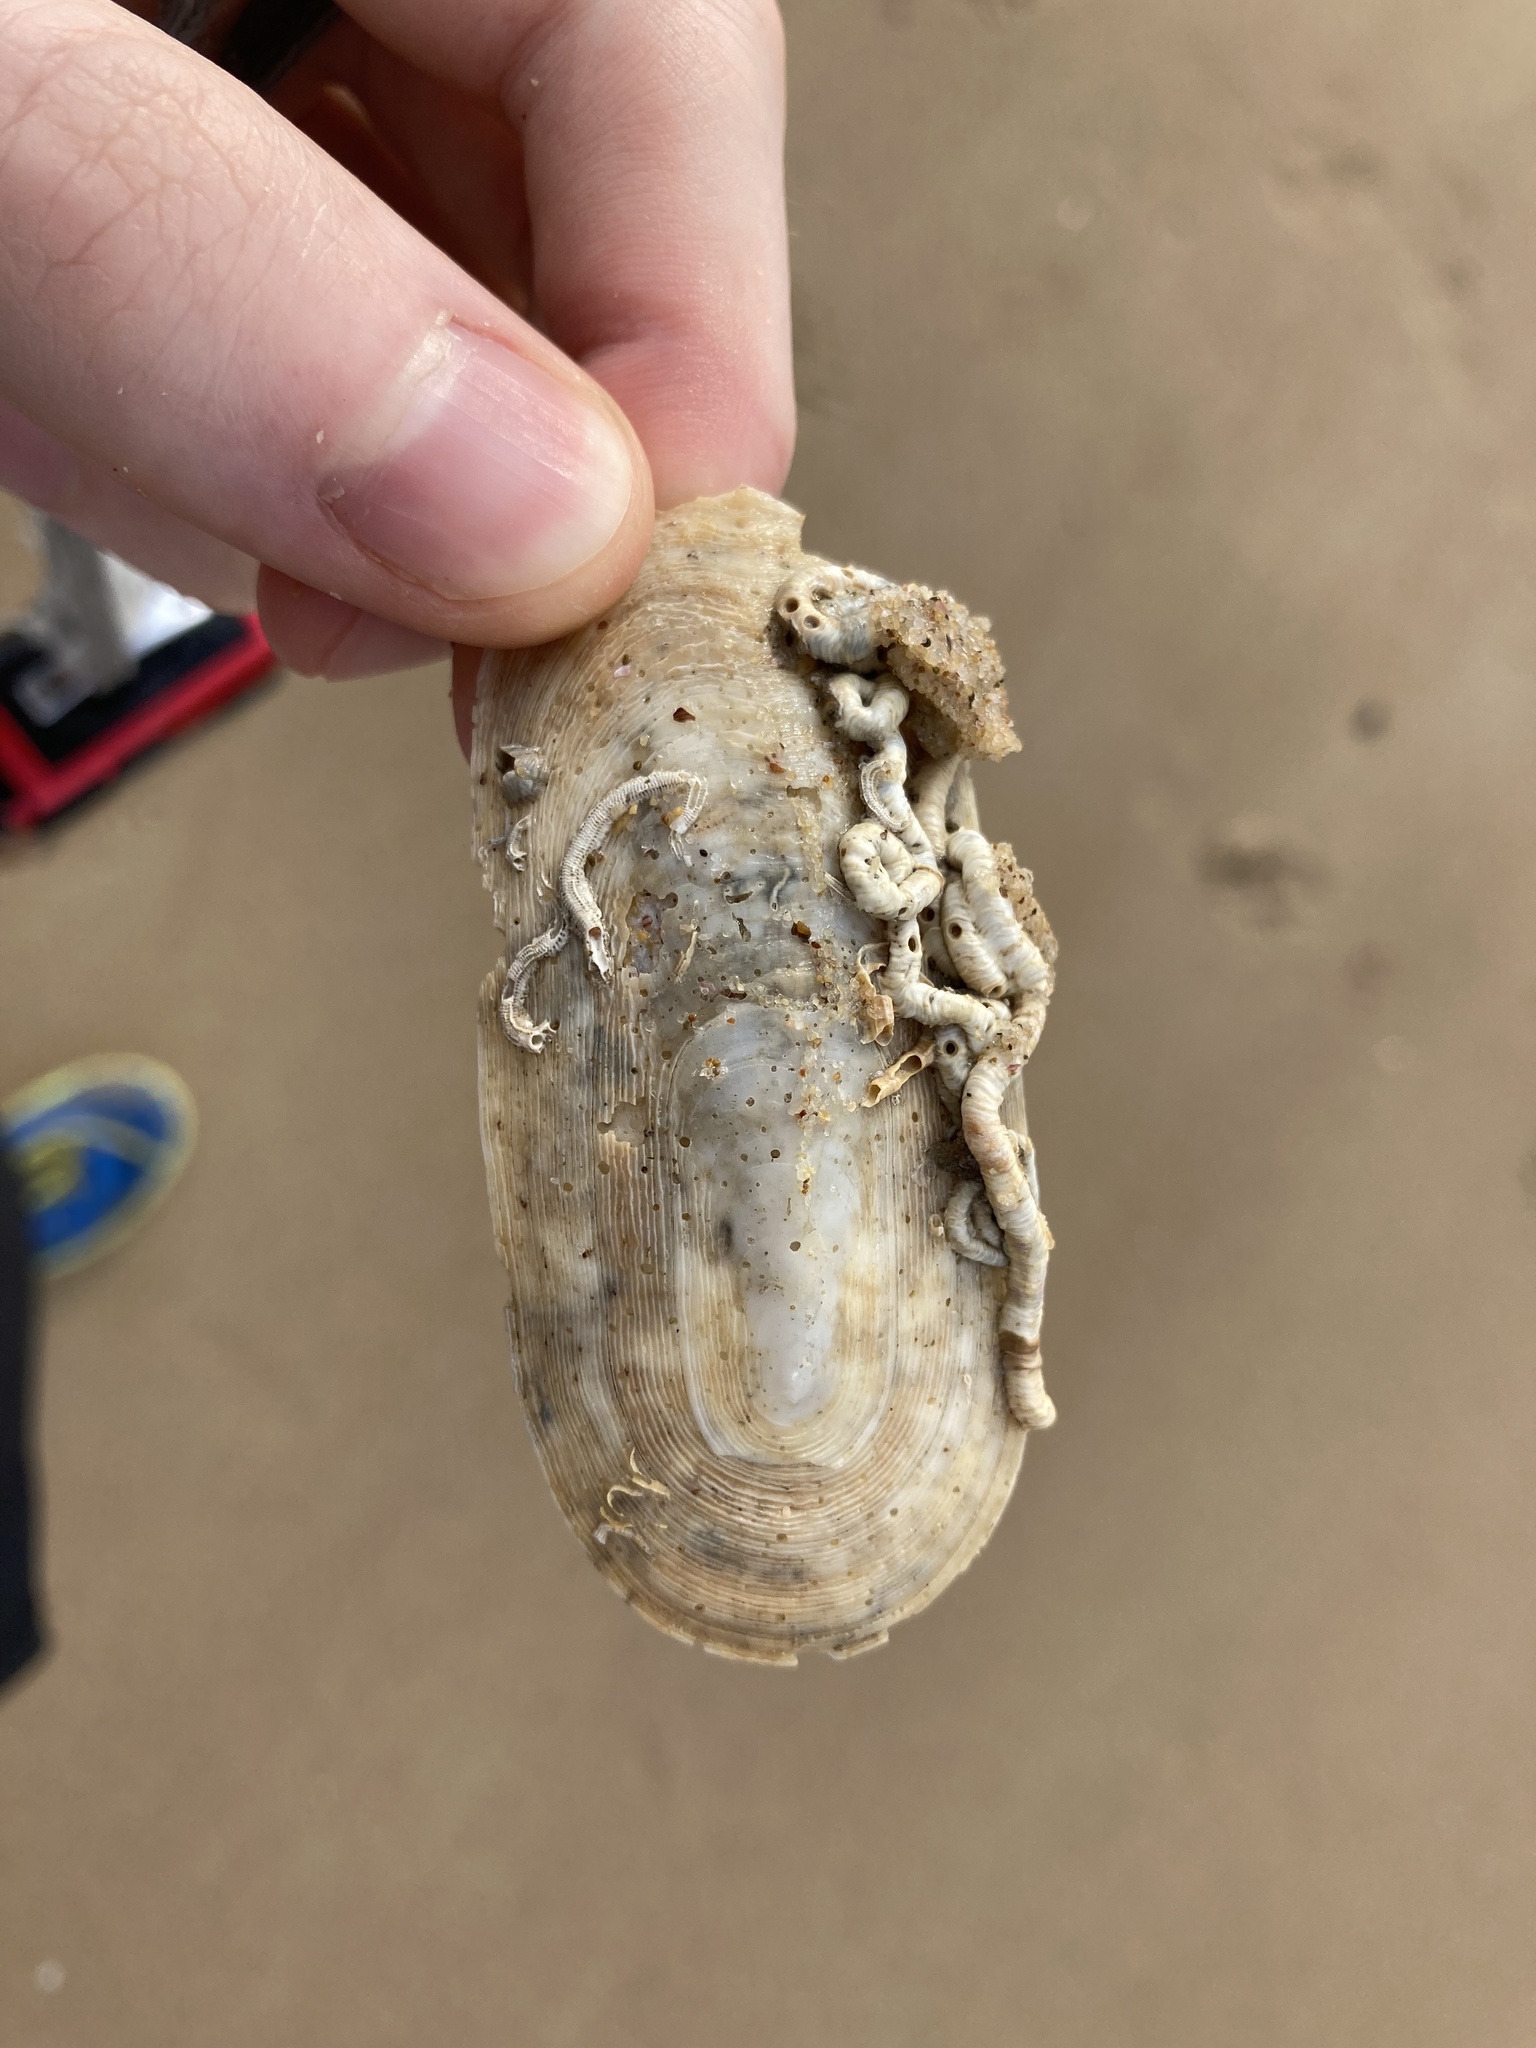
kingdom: Animalia
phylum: Mollusca
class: Gastropoda
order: Lepetellida
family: Fissurellidae
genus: Scutus
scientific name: Scutus antipodes
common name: Duckbill shell
